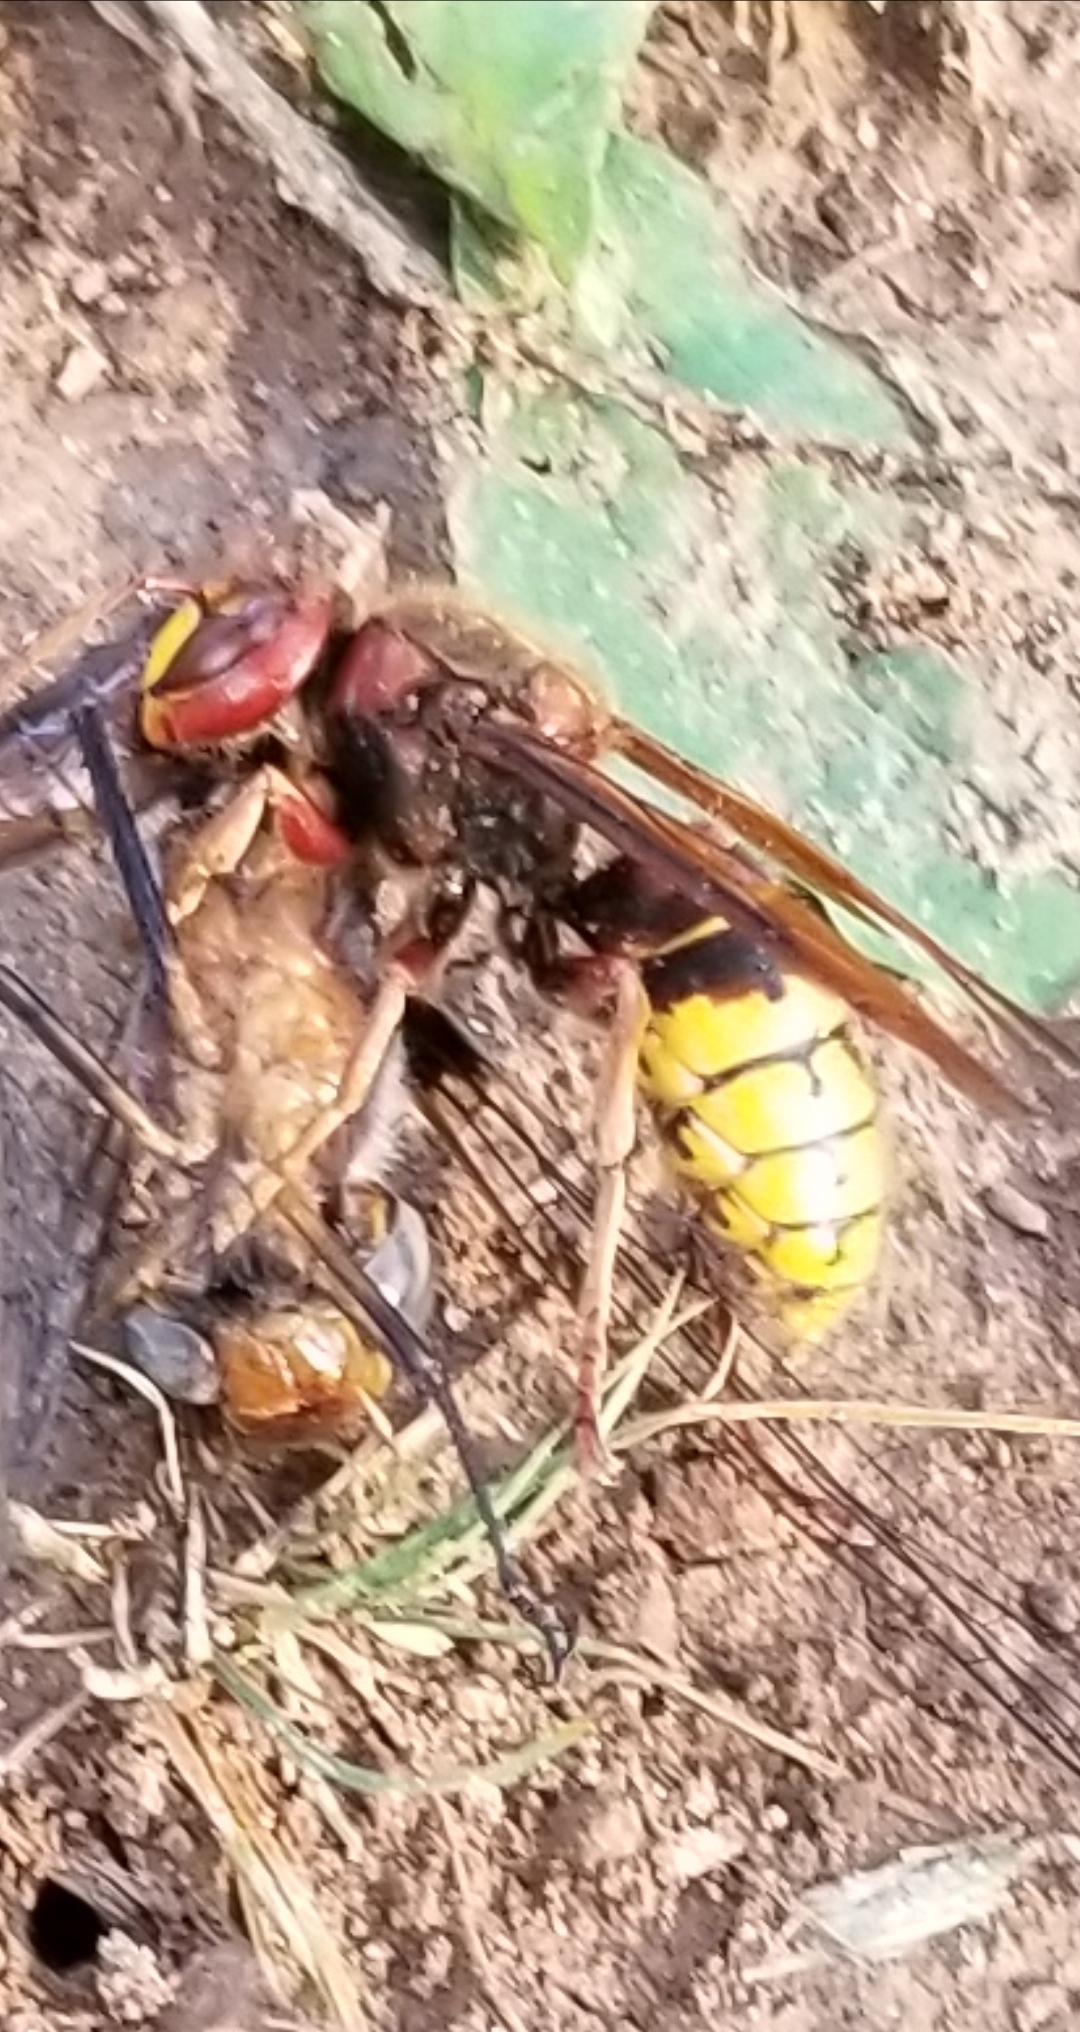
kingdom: Animalia
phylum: Arthropoda
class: Insecta
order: Hymenoptera
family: Vespidae
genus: Vespa
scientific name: Vespa crabro
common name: Hornet
